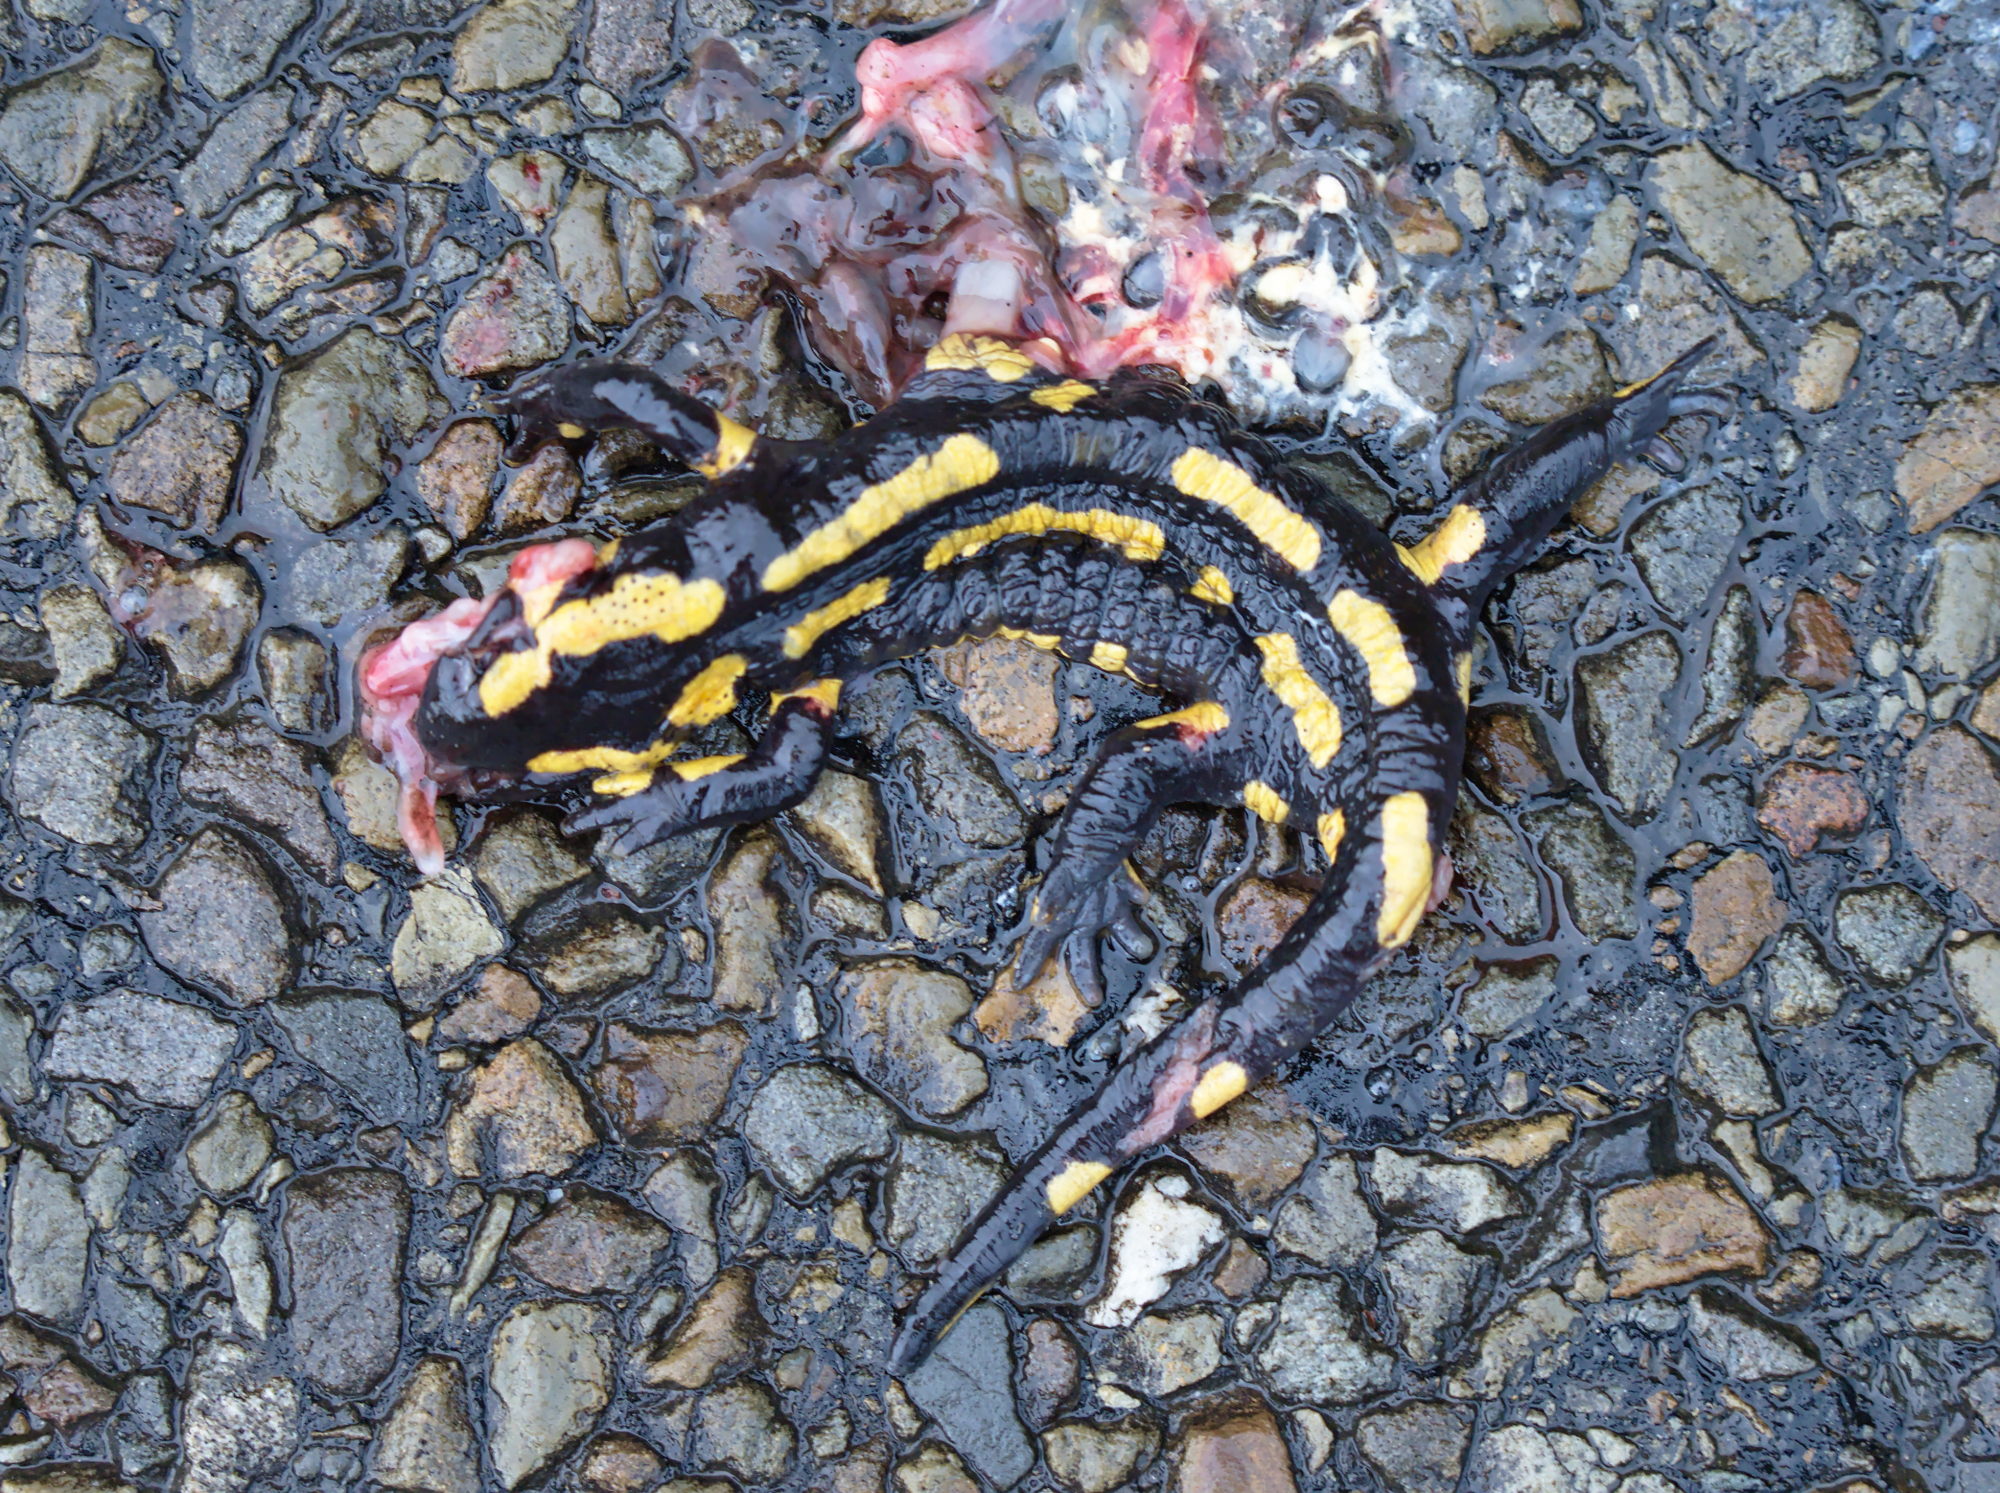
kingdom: Animalia
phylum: Chordata
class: Amphibia
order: Caudata
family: Salamandridae
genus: Salamandra
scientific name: Salamandra salamandra
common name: Fire salamander
